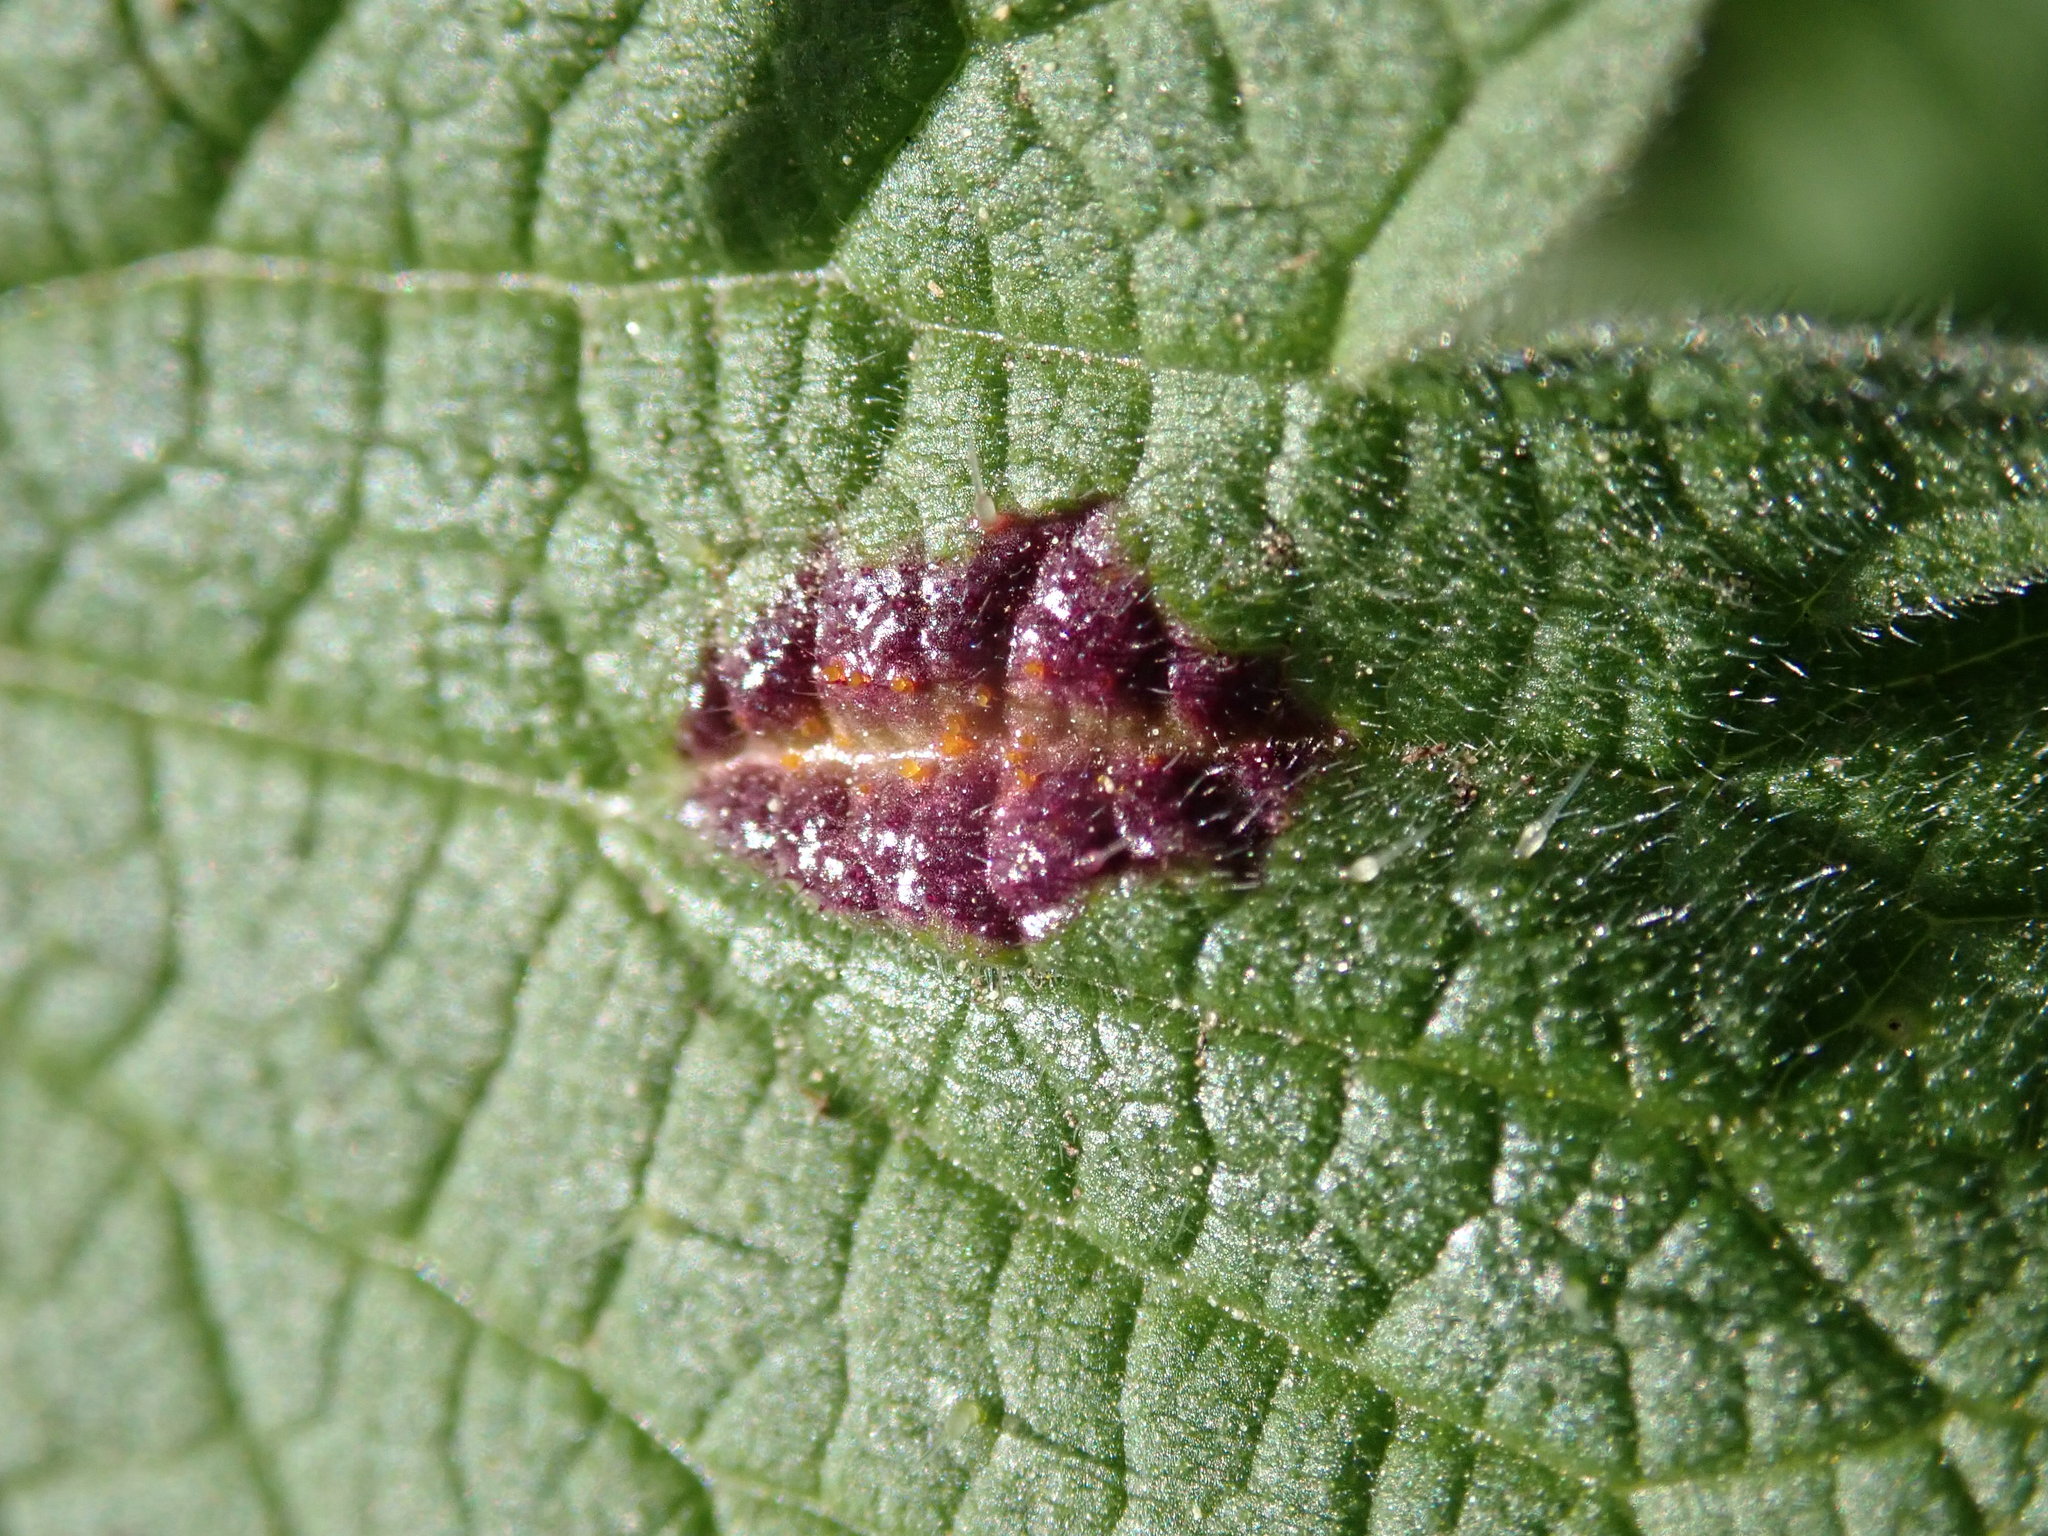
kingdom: Fungi
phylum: Basidiomycota
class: Pucciniomycetes
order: Pucciniales
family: Pucciniaceae
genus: Puccinia
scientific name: Puccinia urticata
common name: Nettle clustercup rust fungus
